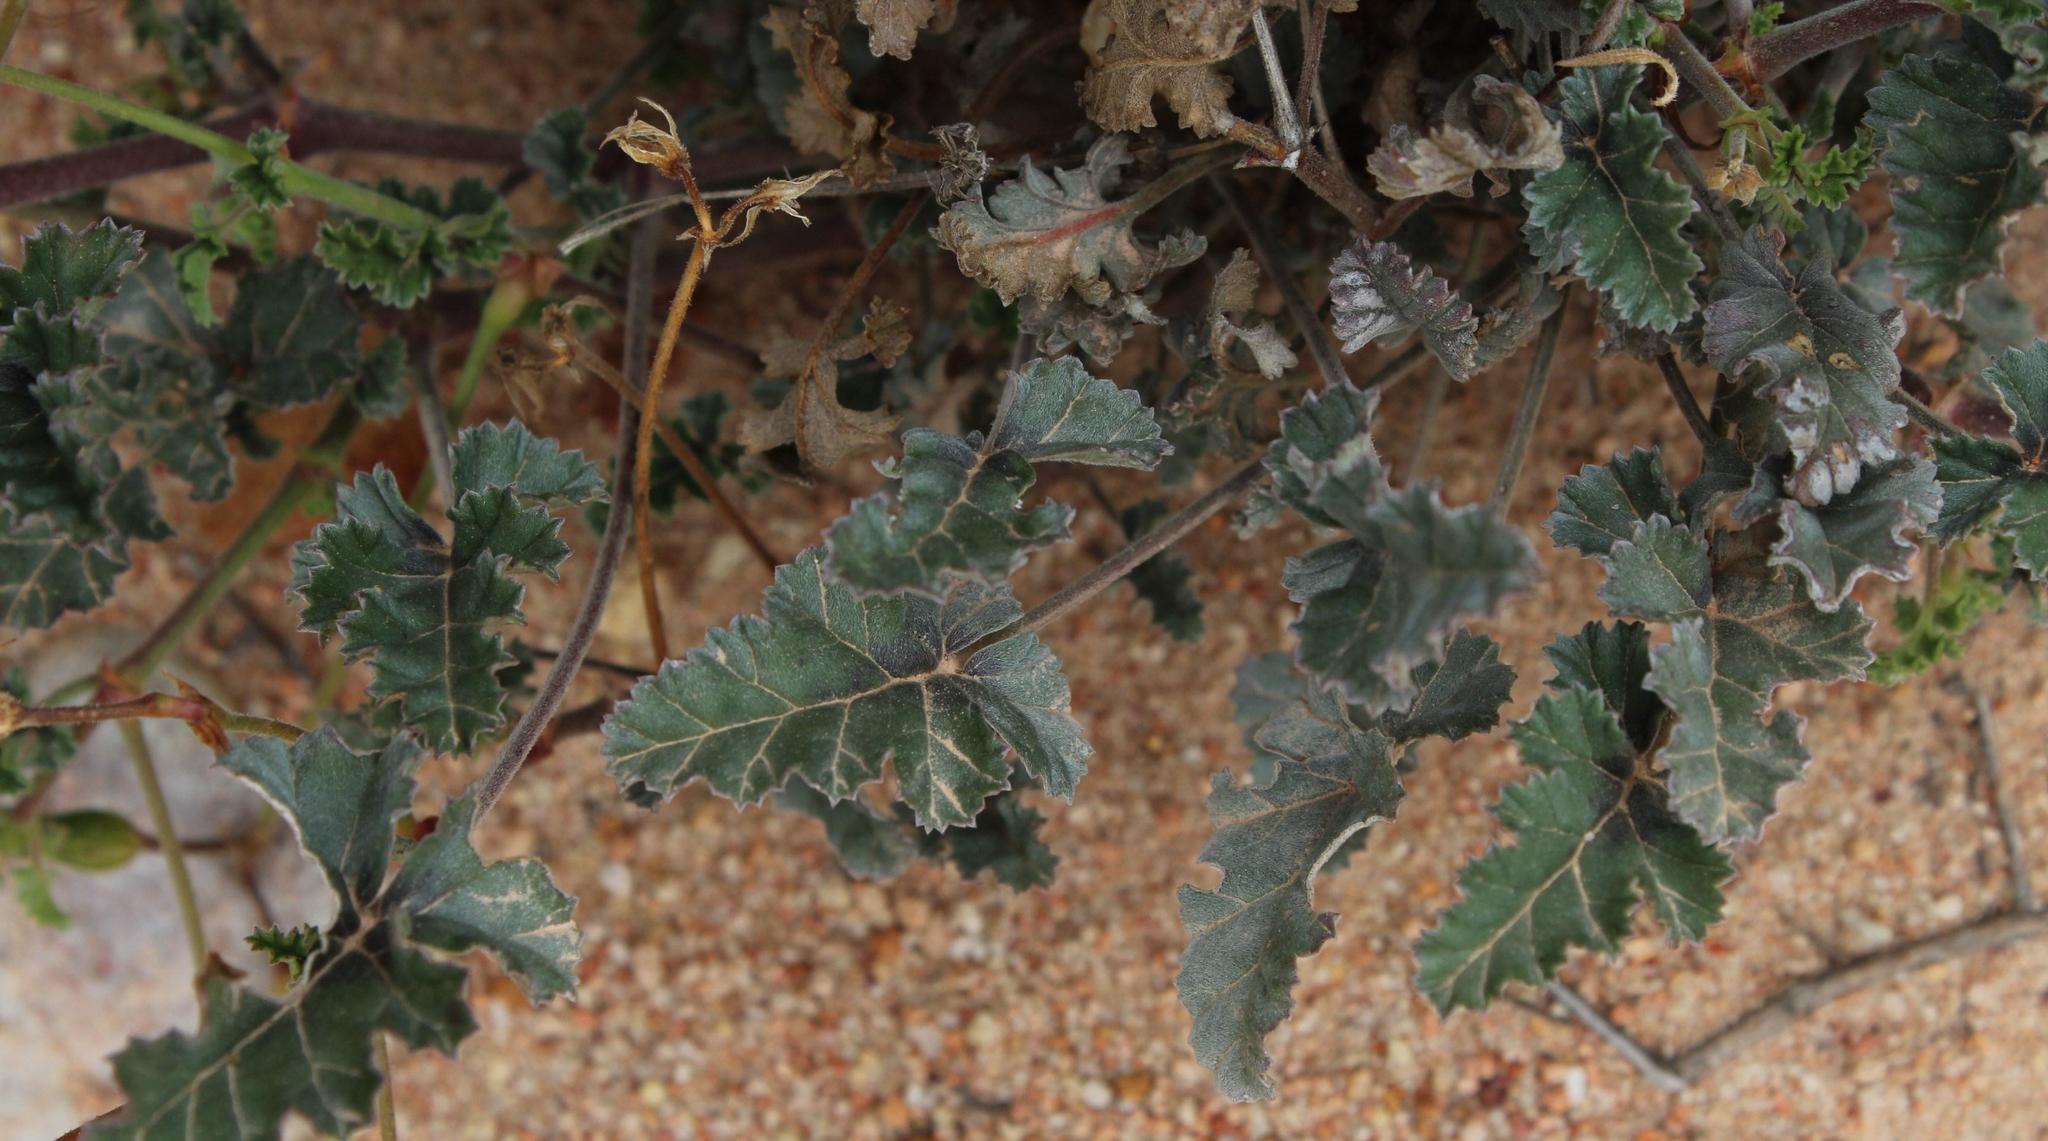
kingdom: Plantae
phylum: Tracheophyta
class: Magnoliopsida
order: Geraniales
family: Geraniaceae
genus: Pelargonium
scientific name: Pelargonium candicans
